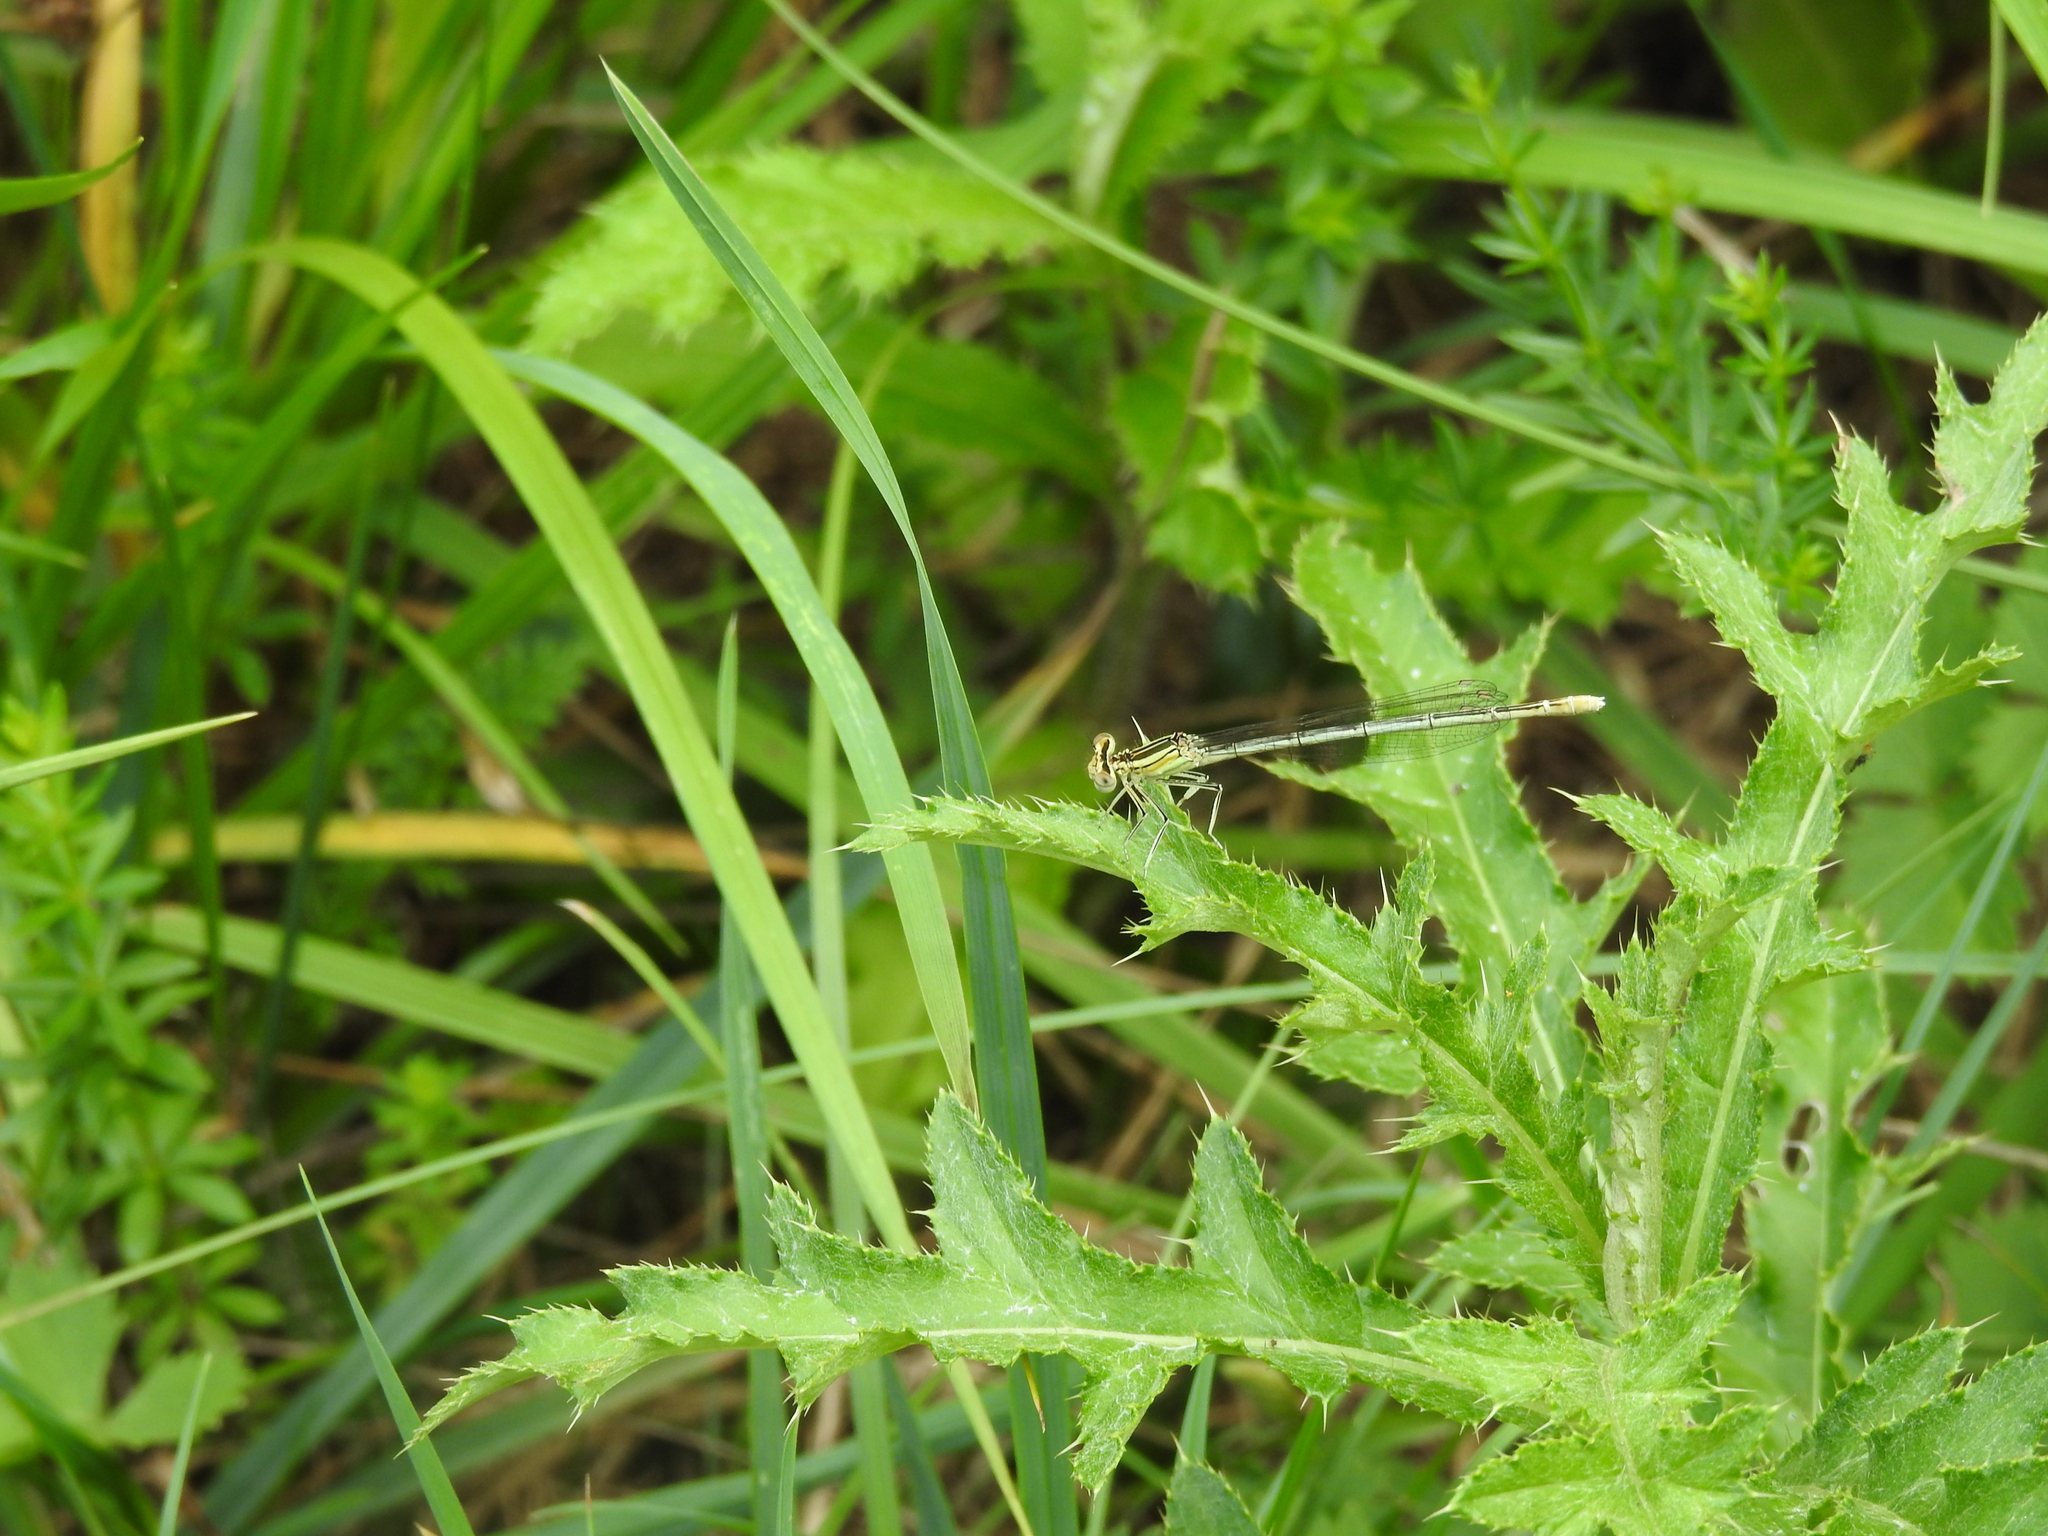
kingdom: Animalia
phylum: Arthropoda
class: Insecta
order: Odonata
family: Platycnemididae
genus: Platycnemis
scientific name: Platycnemis pennipes
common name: White-legged damselfly
